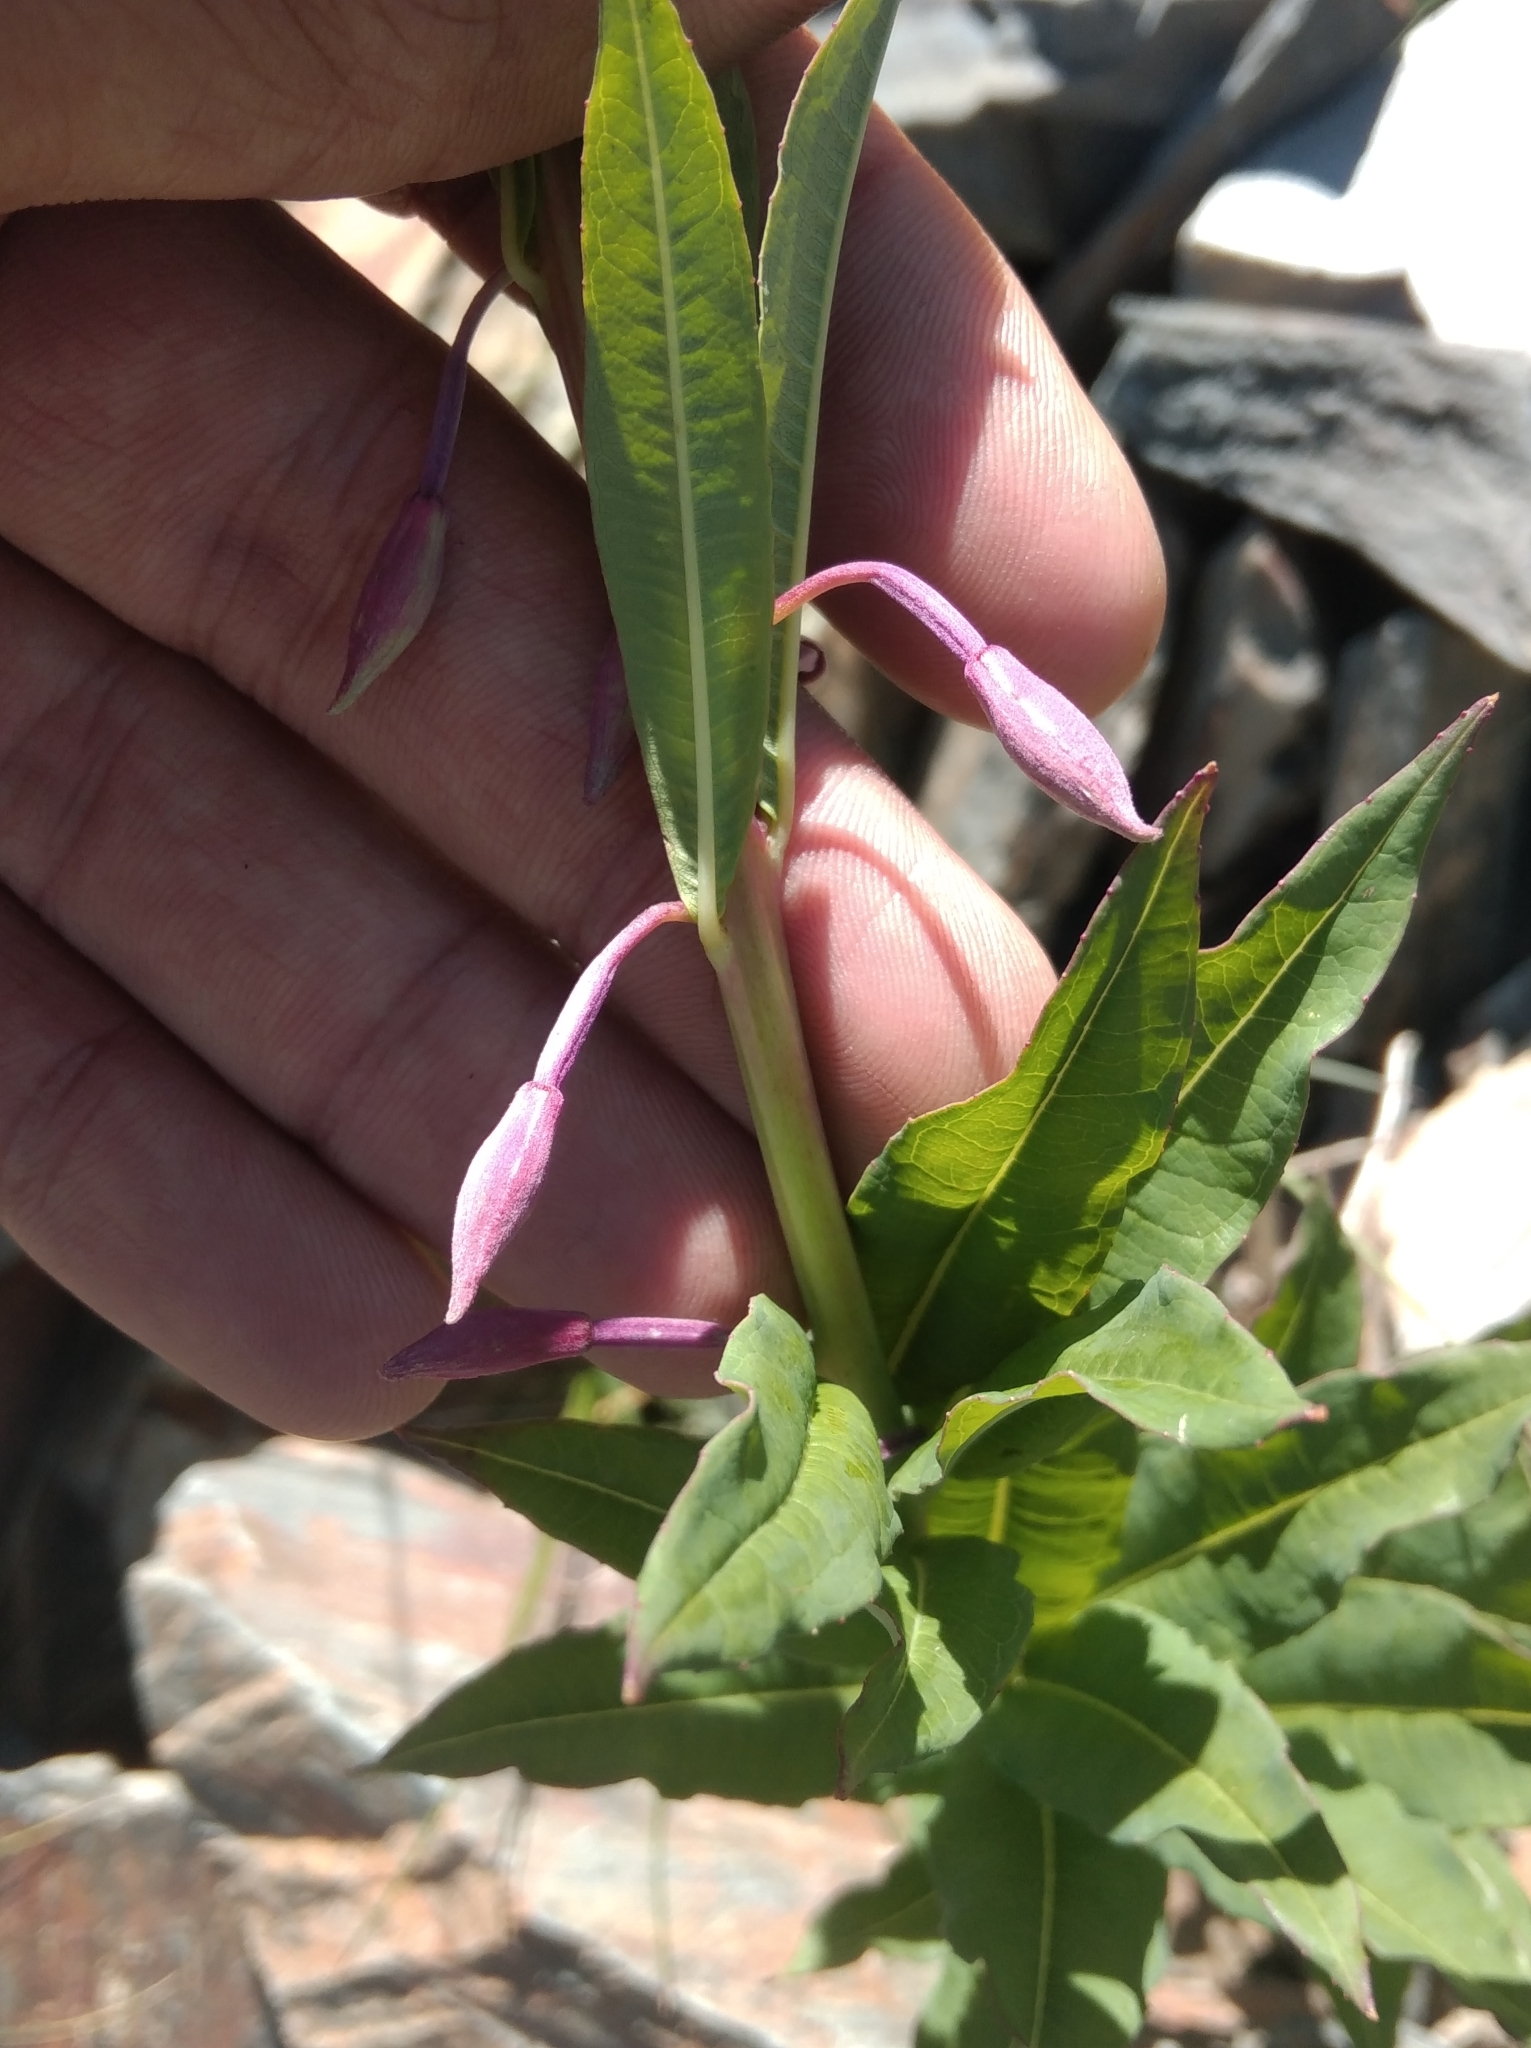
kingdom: Plantae
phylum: Tracheophyta
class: Magnoliopsida
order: Myrtales
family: Onagraceae
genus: Chamaenerion
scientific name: Chamaenerion angustifolium
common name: Fireweed
